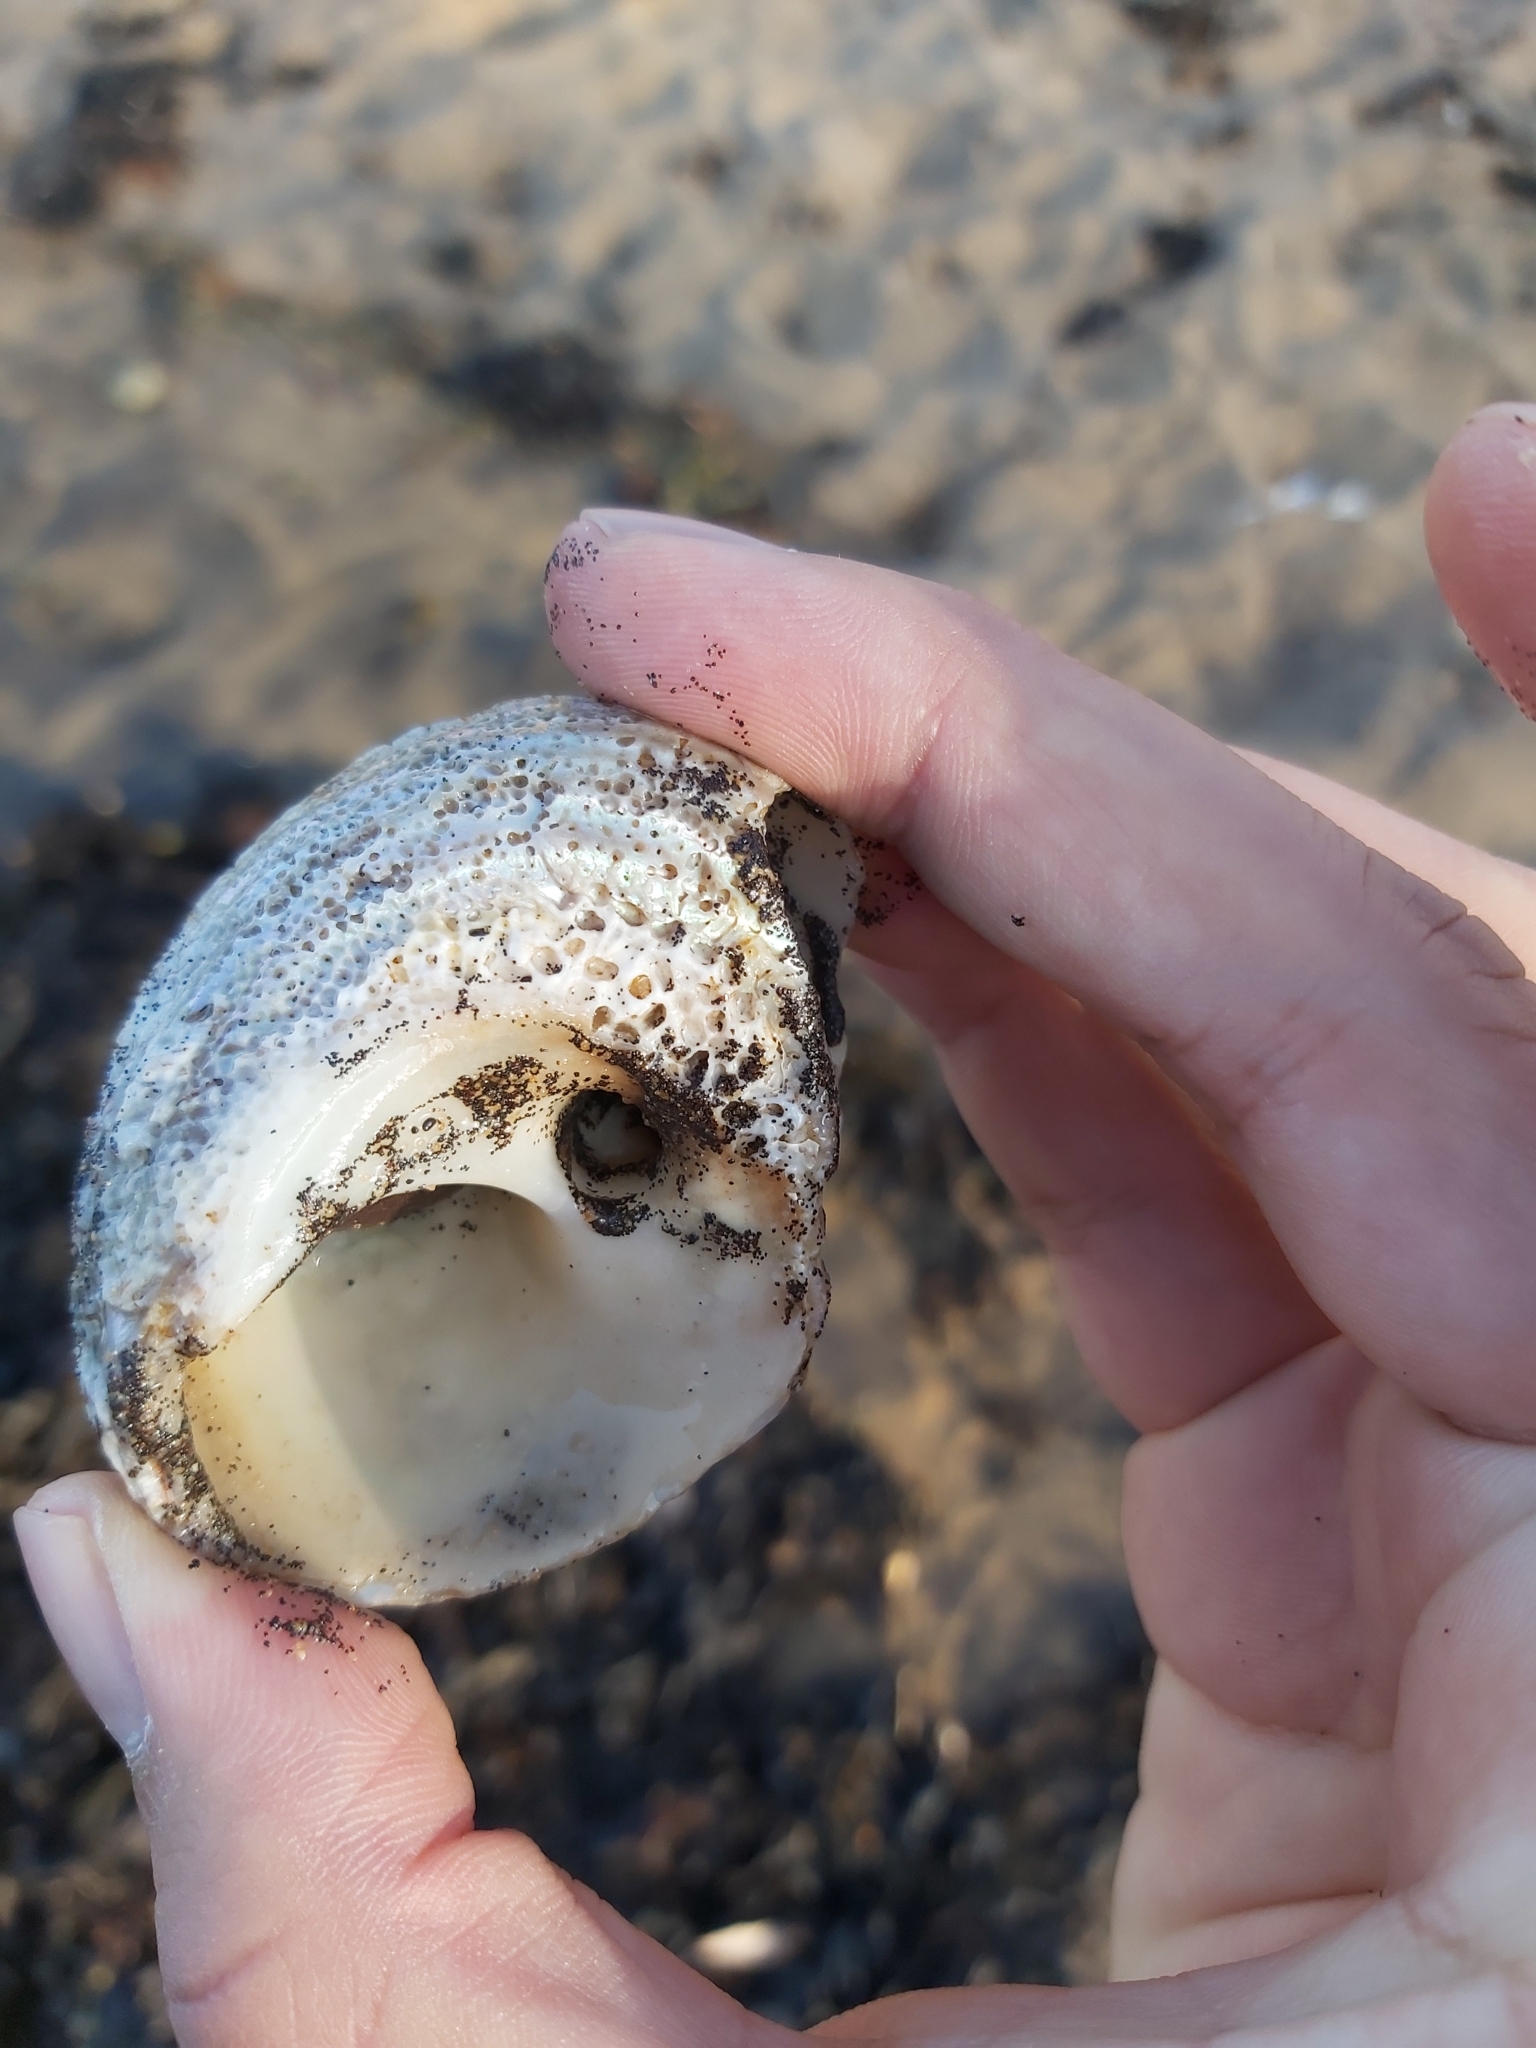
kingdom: Animalia
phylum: Mollusca
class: Gastropoda
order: Trochida
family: Turbinidae
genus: Lunella
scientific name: Lunella torquata
